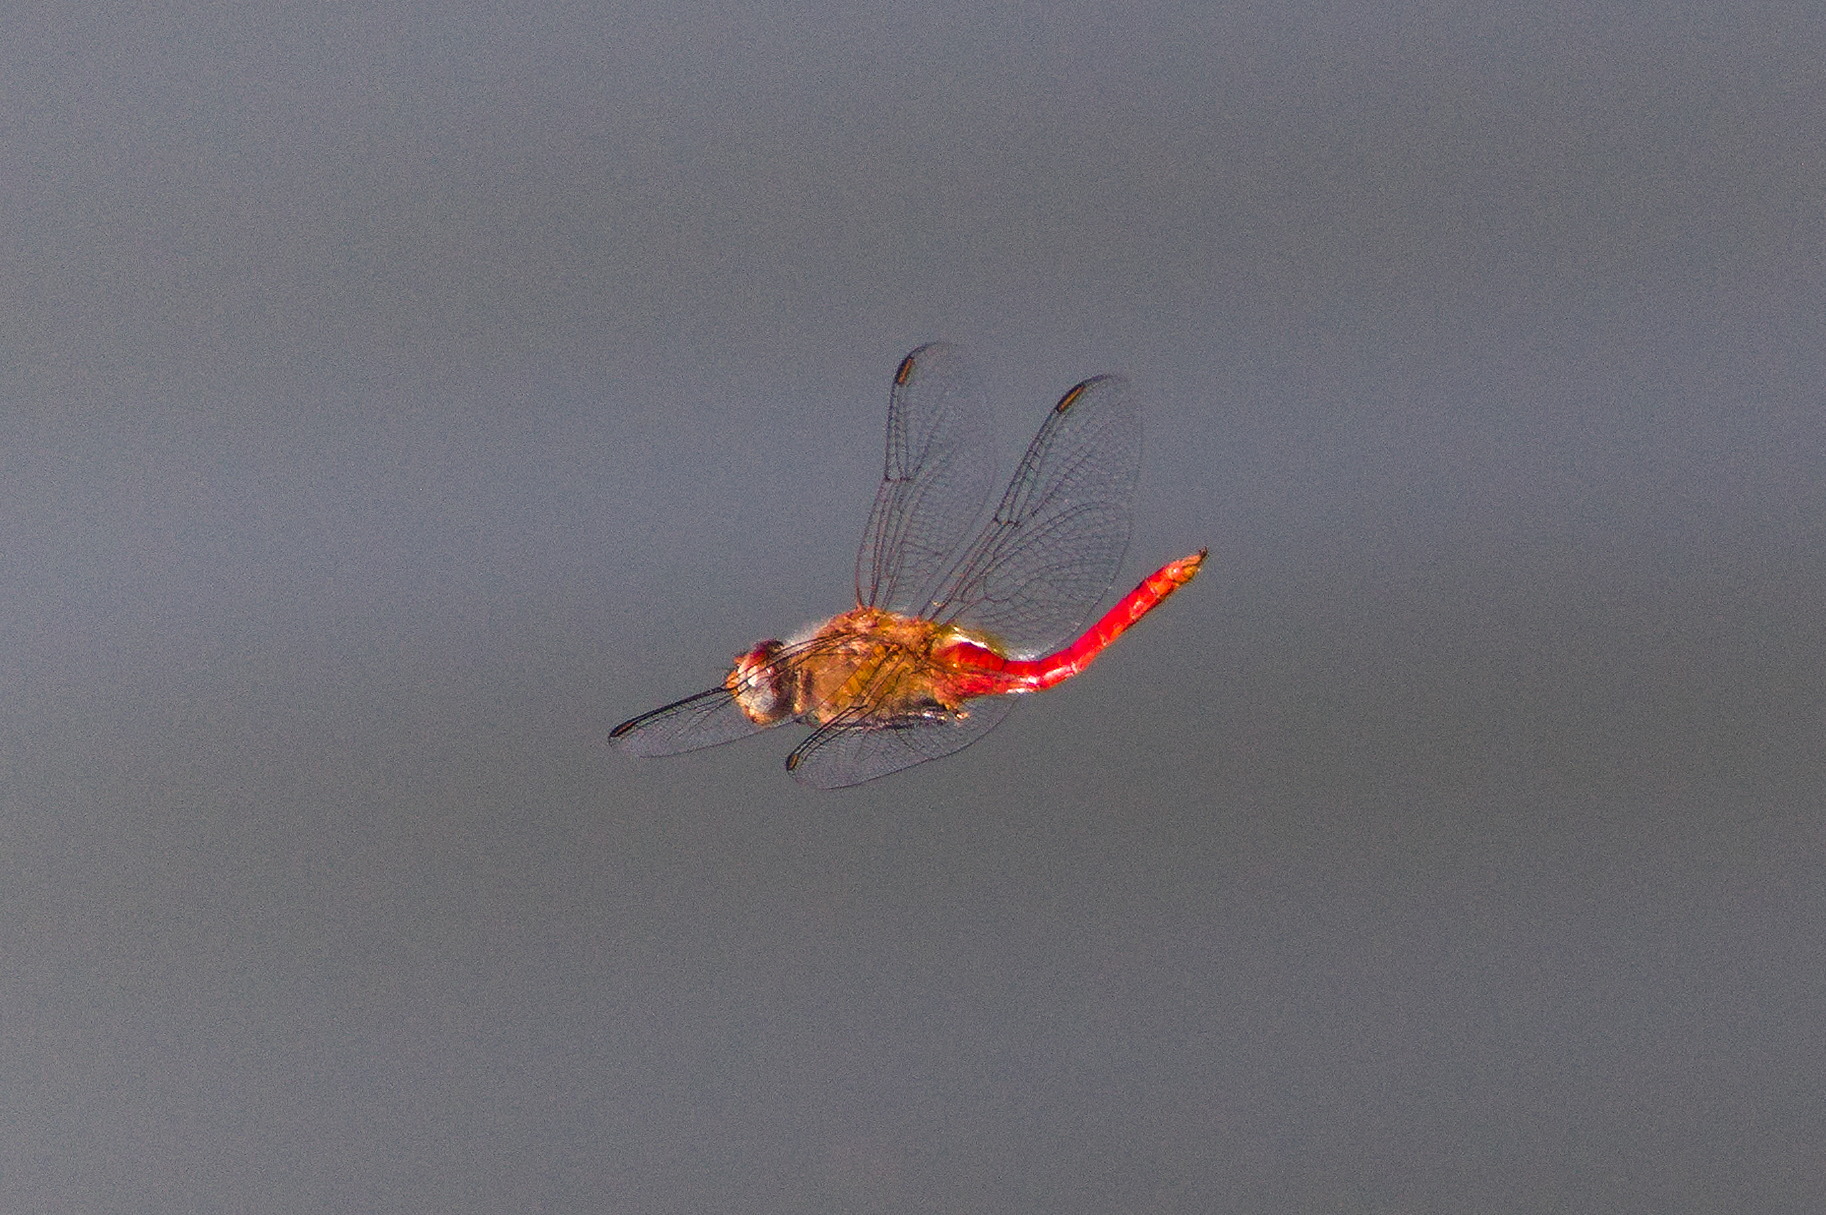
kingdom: Animalia
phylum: Arthropoda
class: Insecta
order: Odonata
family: Libellulidae
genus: Brachymesia
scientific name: Brachymesia furcata
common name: Red-taled pennant
